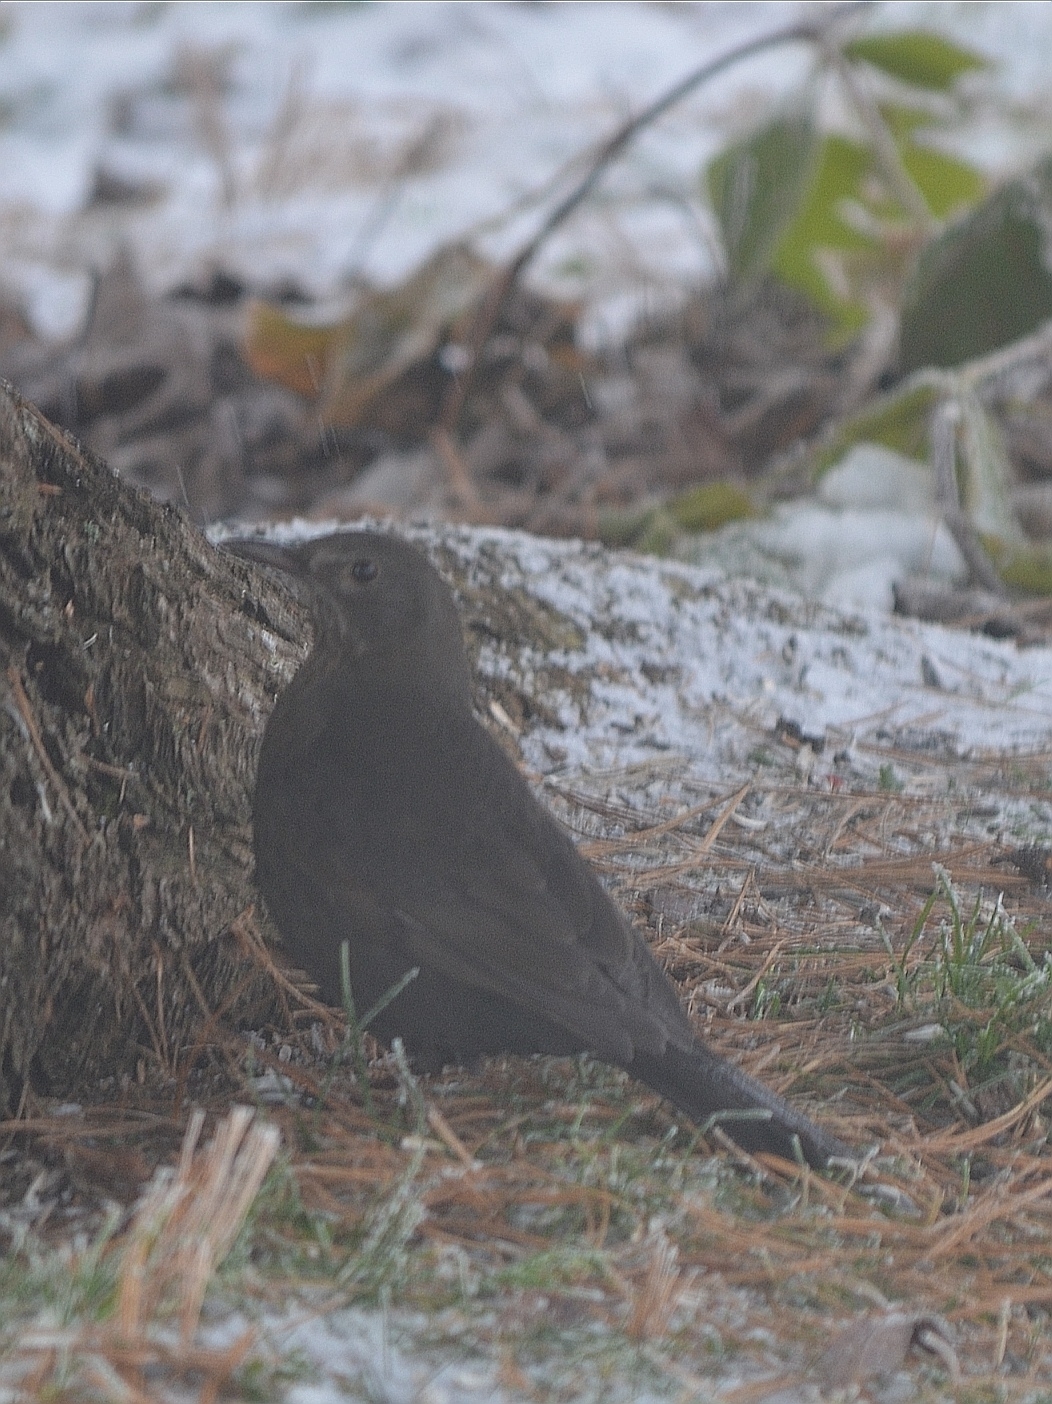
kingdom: Animalia
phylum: Chordata
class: Aves
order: Passeriformes
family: Turdidae
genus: Turdus
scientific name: Turdus merula
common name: Common blackbird
